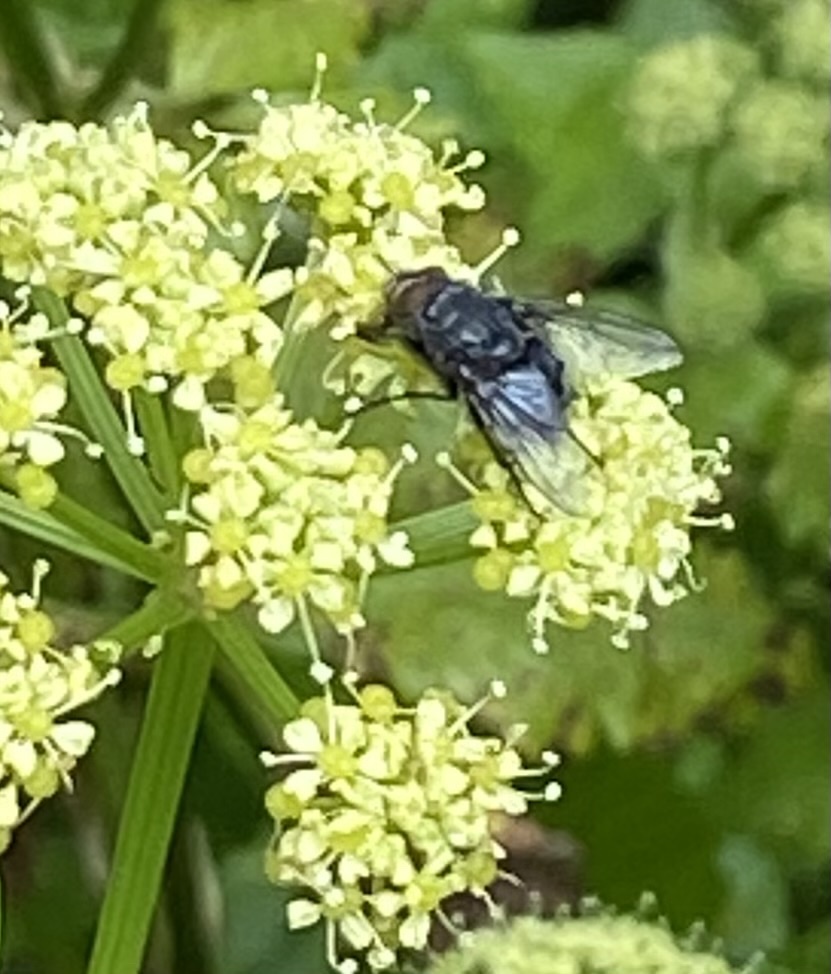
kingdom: Animalia
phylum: Arthropoda
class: Insecta
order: Diptera
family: Calliphoridae
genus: Calliphora
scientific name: Calliphora vicina
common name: Common blow flie
